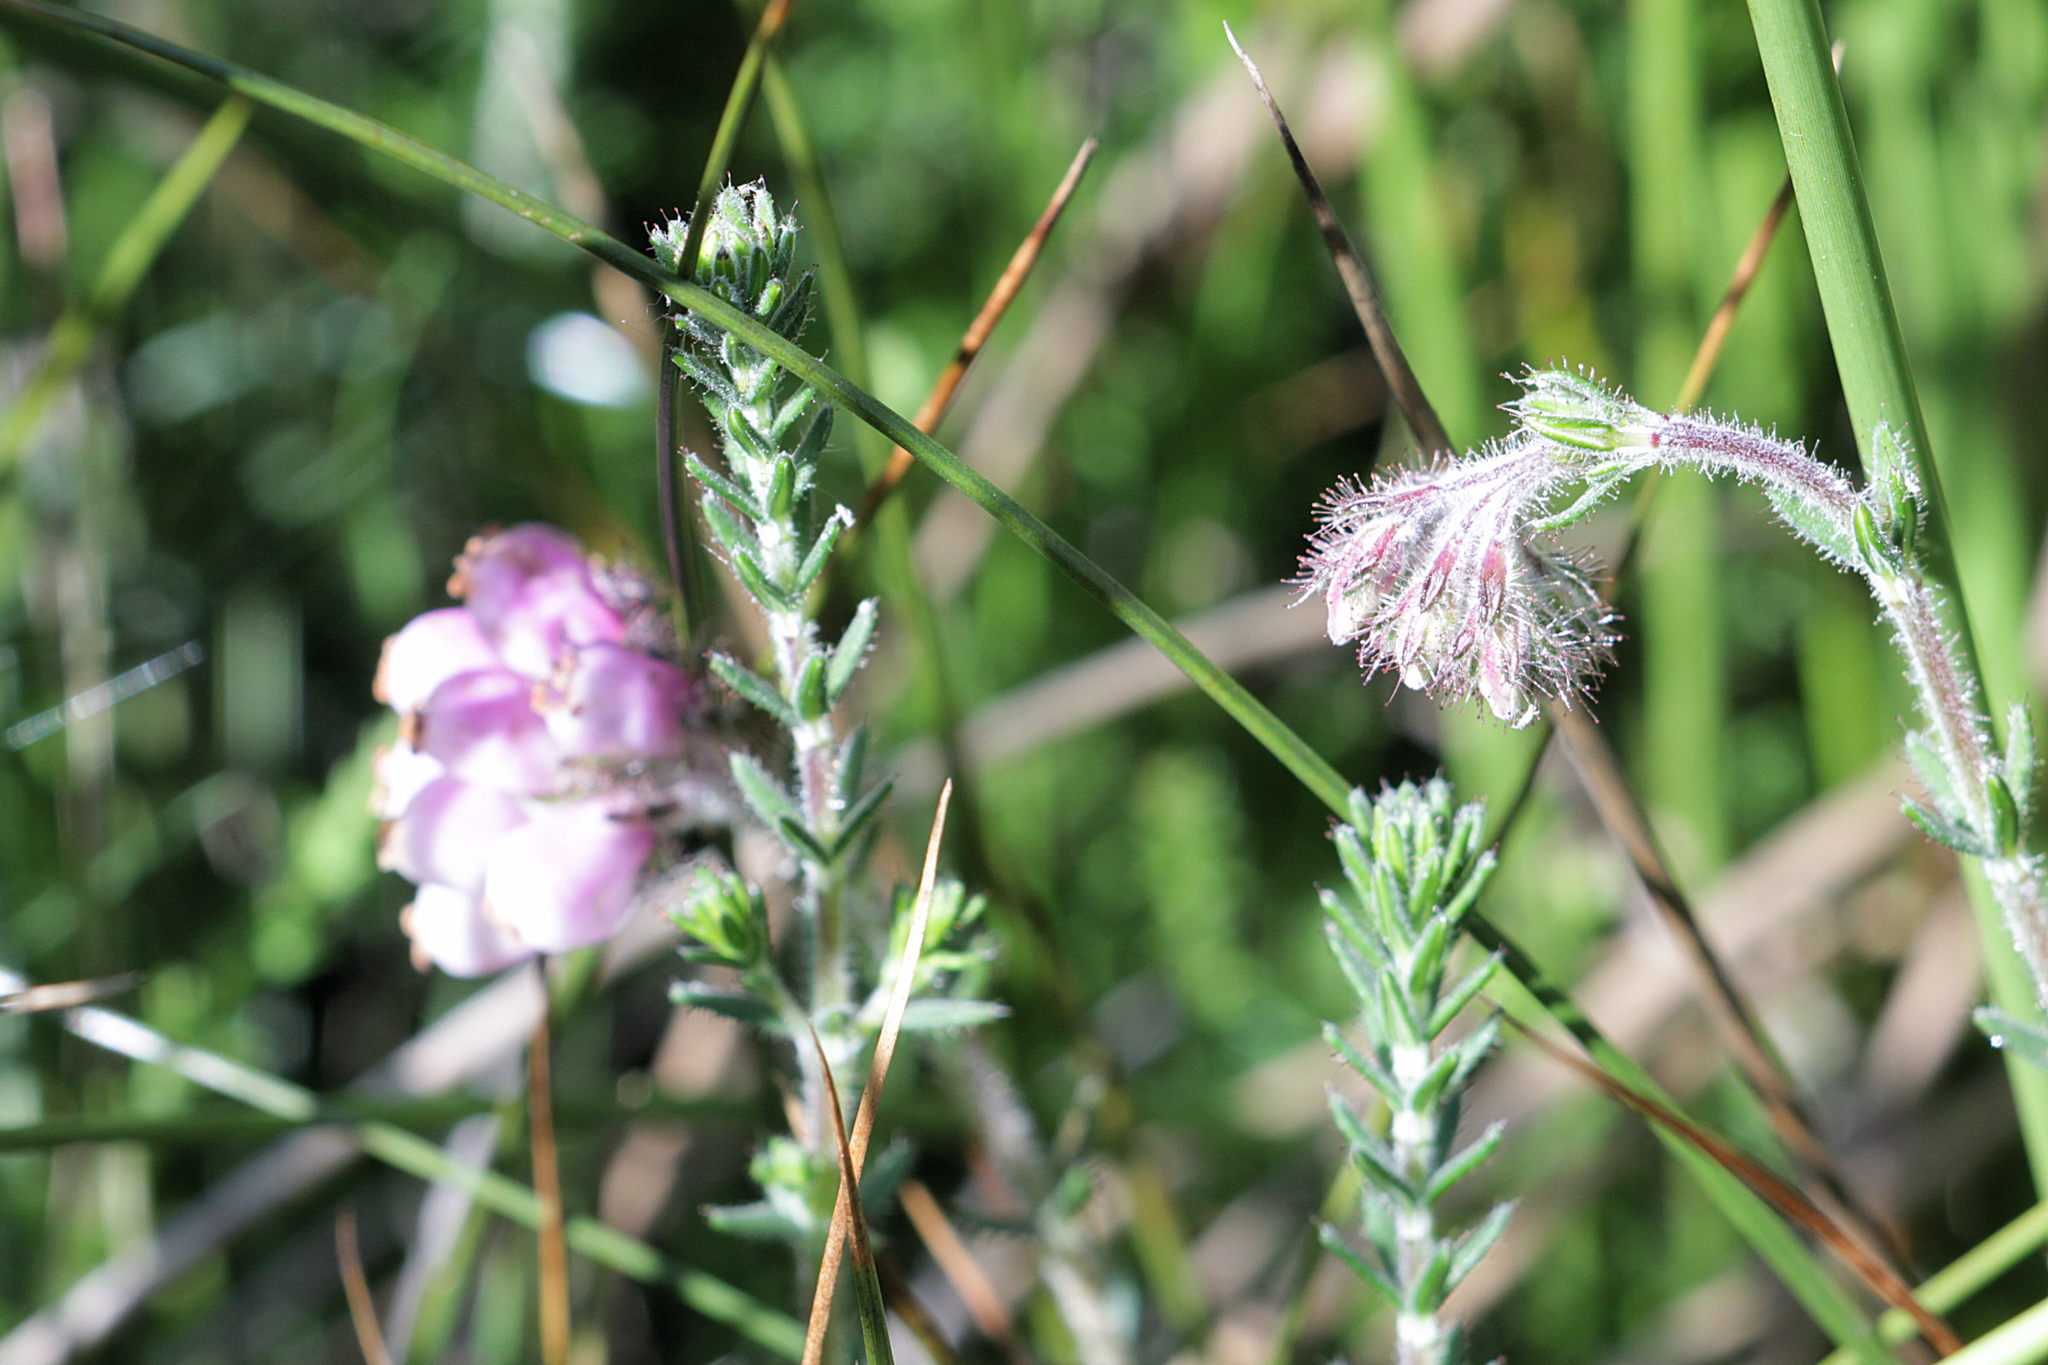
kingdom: Plantae
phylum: Tracheophyta
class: Magnoliopsida
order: Ericales
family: Ericaceae
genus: Erica
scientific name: Erica tetralix
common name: Cross-leaved heath
